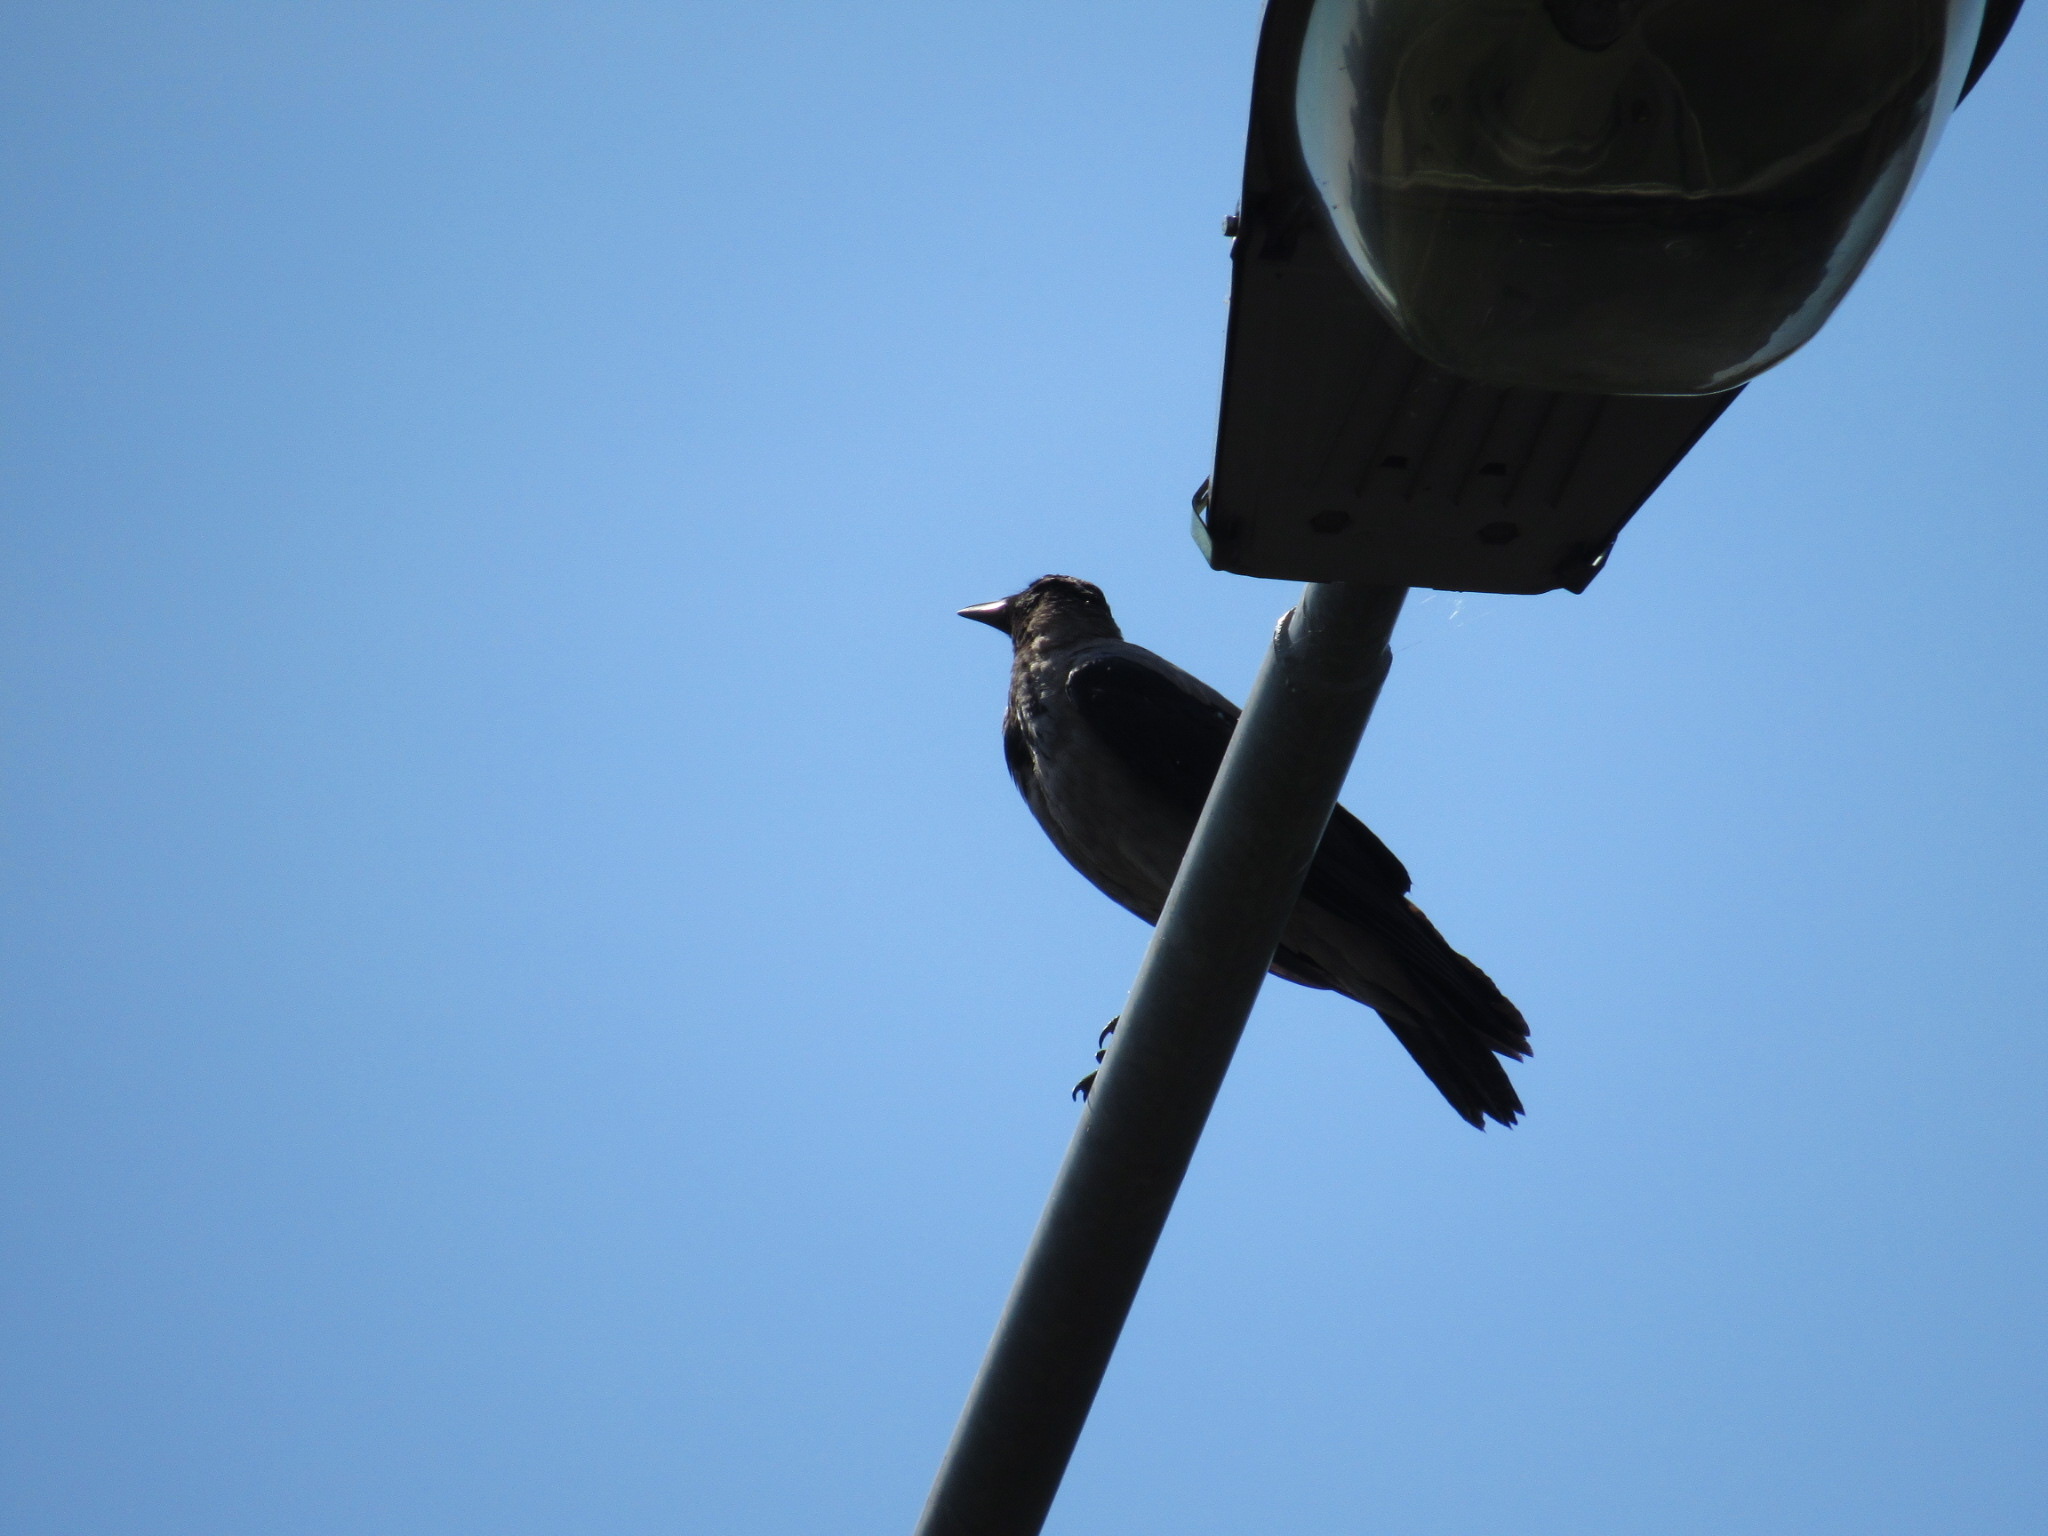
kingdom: Animalia
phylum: Chordata
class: Aves
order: Passeriformes
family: Corvidae
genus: Corvus
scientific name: Corvus cornix
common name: Hooded crow
